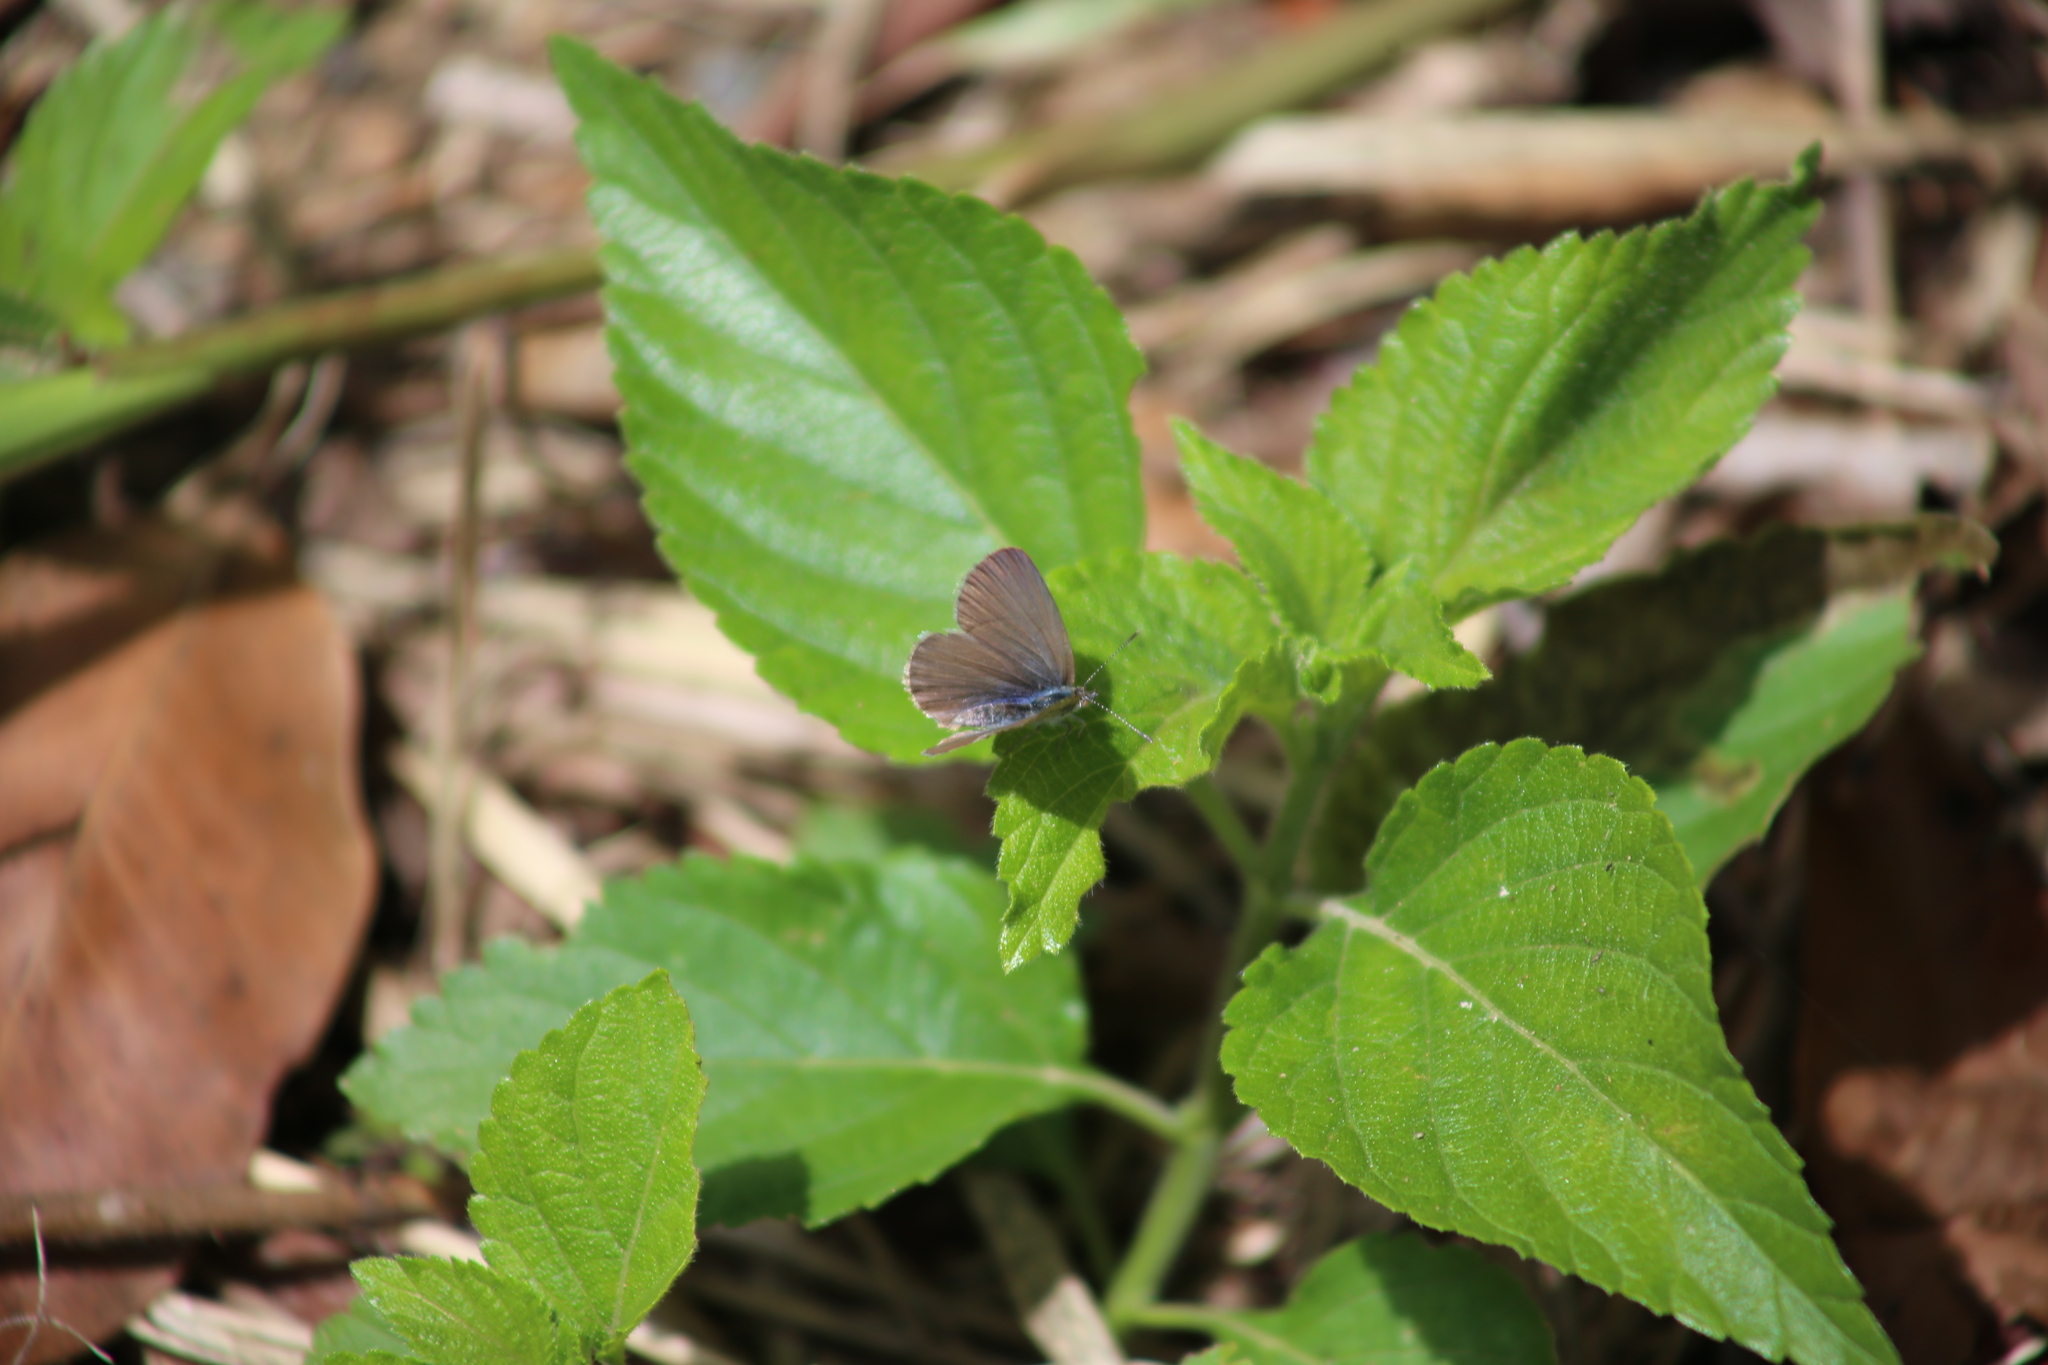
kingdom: Animalia
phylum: Arthropoda
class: Insecta
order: Lepidoptera
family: Lycaenidae
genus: Zizina
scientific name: Zizina labradus
